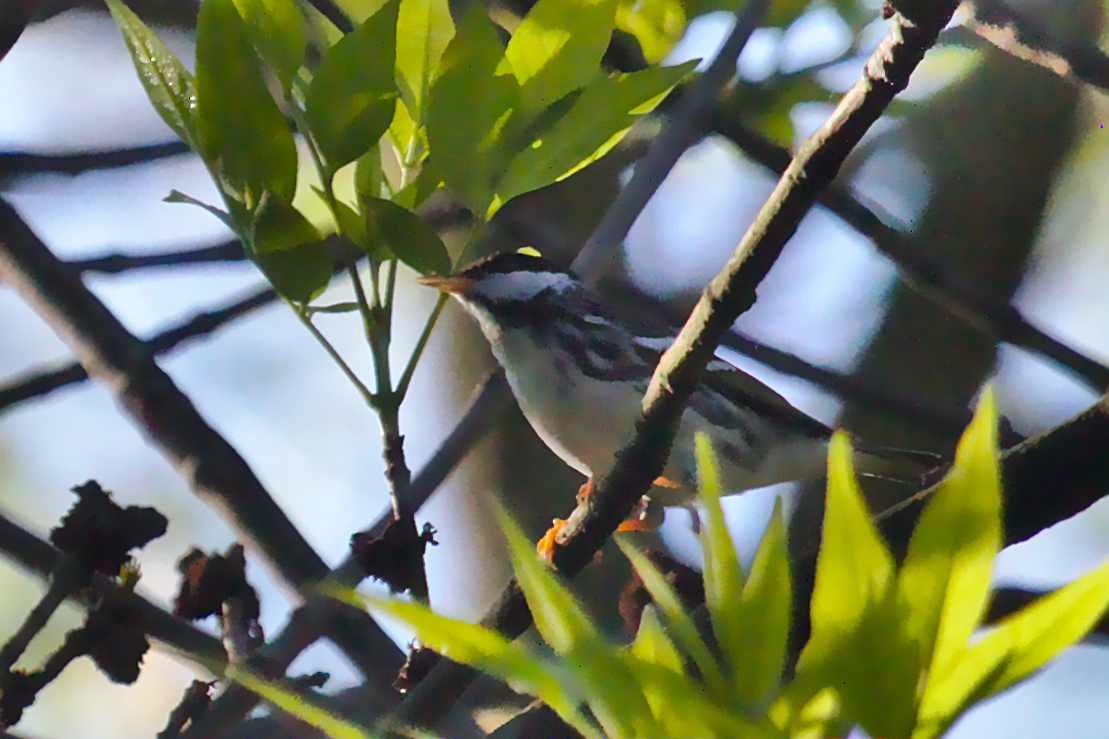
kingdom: Animalia
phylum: Chordata
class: Aves
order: Passeriformes
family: Parulidae
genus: Setophaga
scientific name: Setophaga striata
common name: Blackpoll warbler
